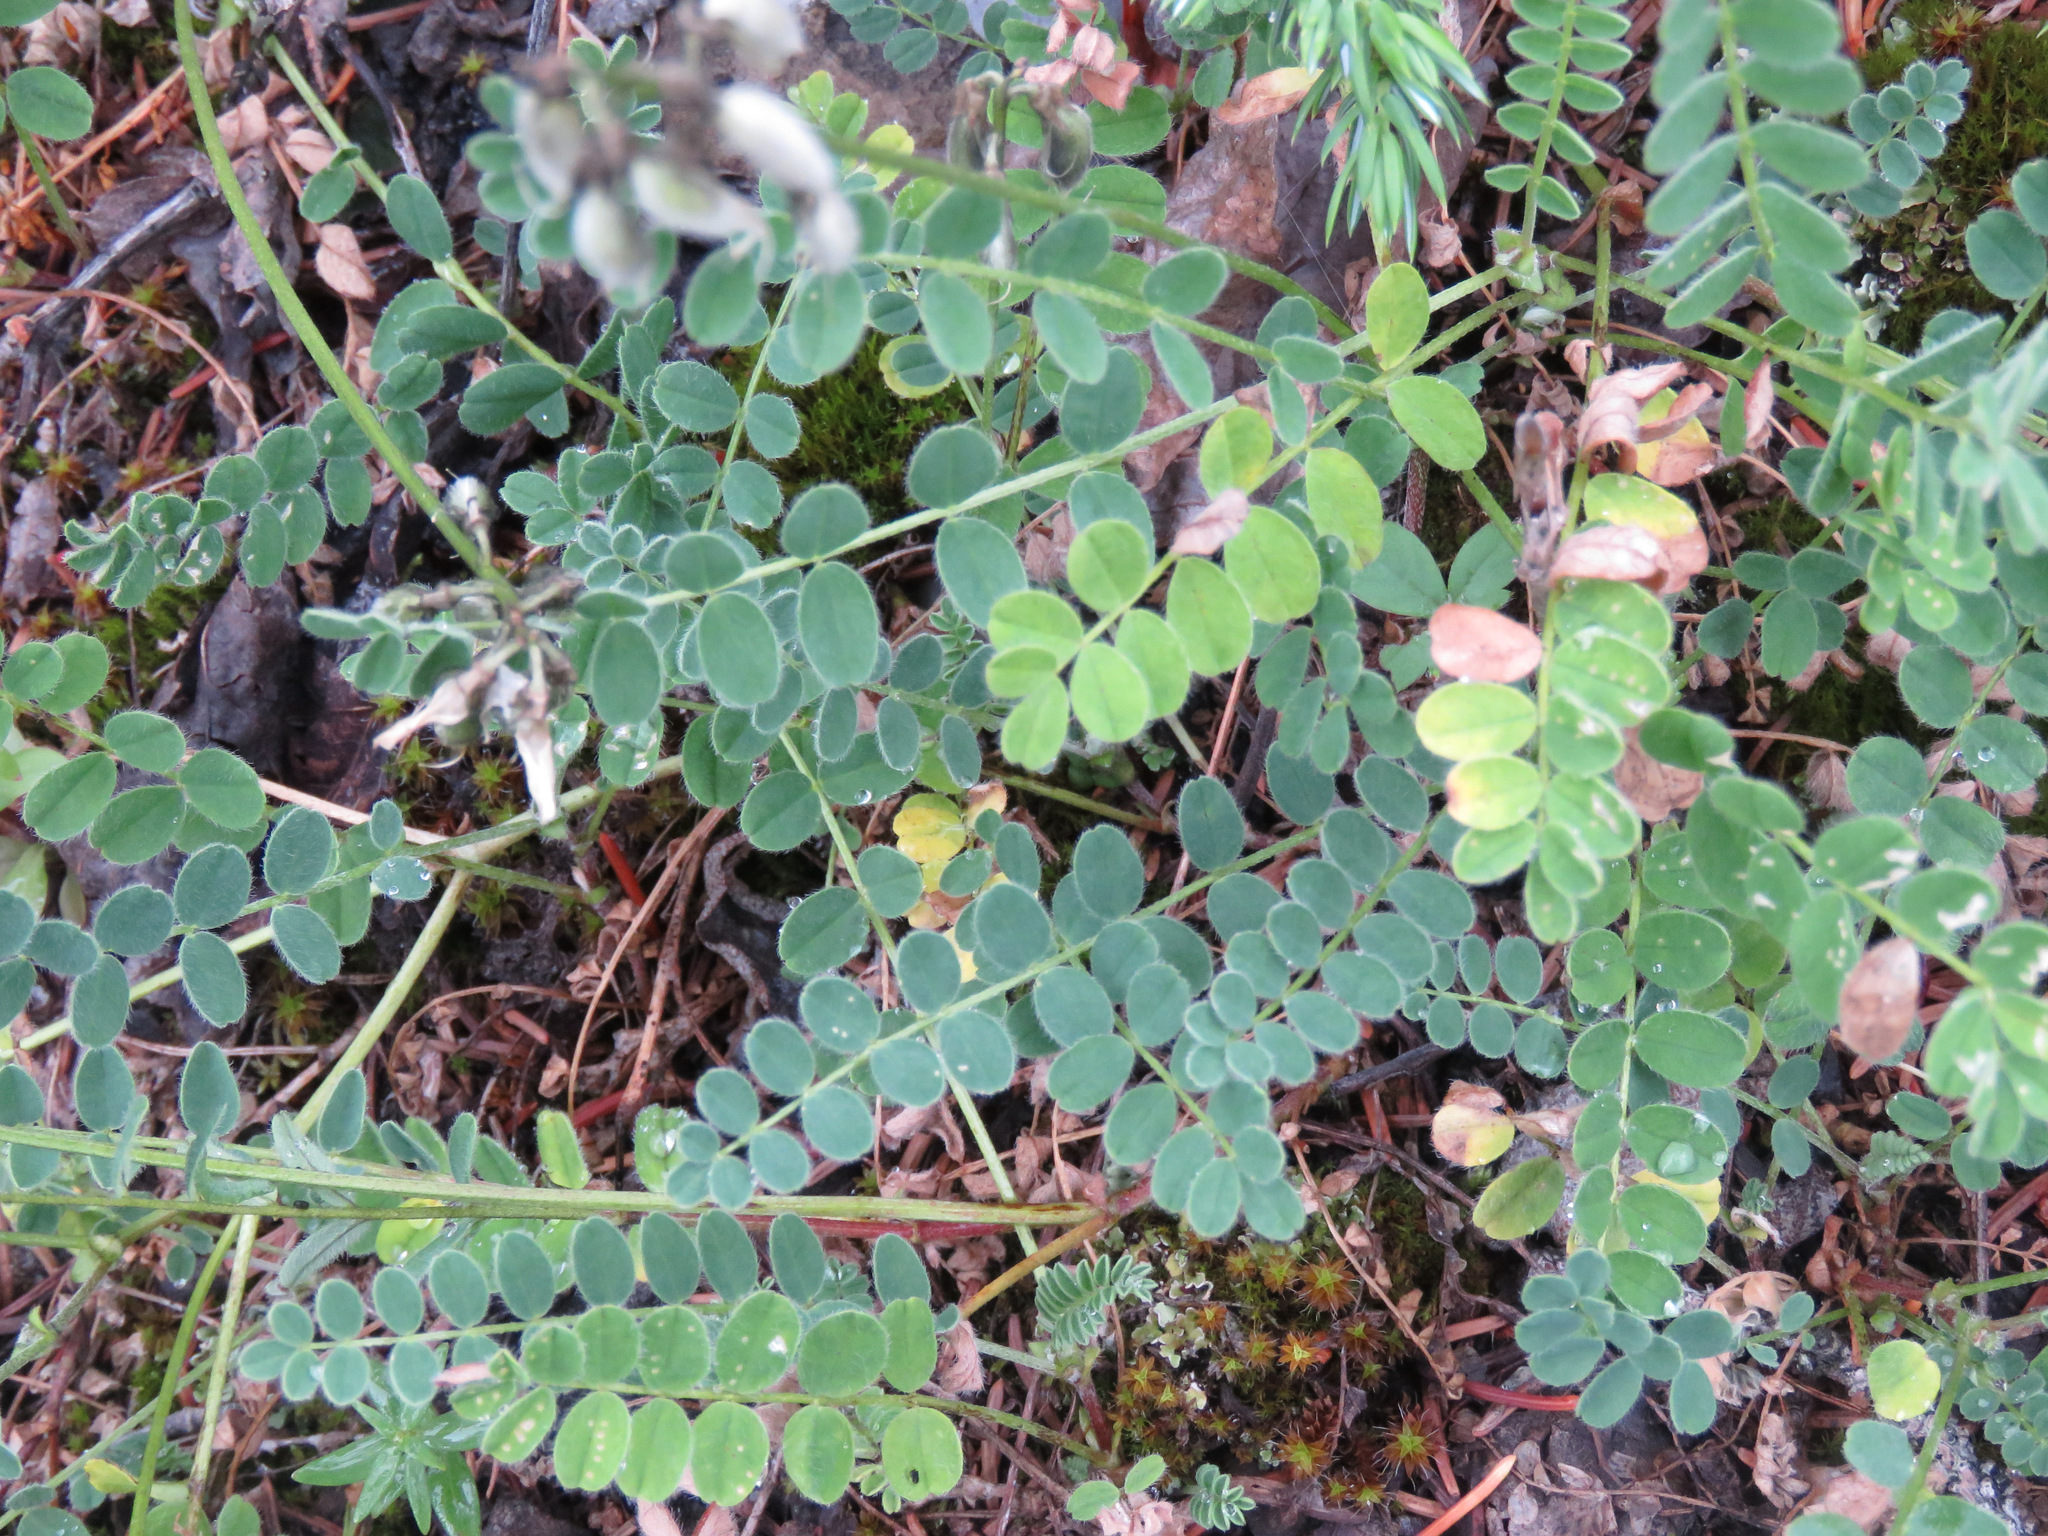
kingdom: Plantae
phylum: Tracheophyta
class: Magnoliopsida
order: Fabales
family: Fabaceae
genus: Astragalus
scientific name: Astragalus alpinus
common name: Alpine milk-vetch
